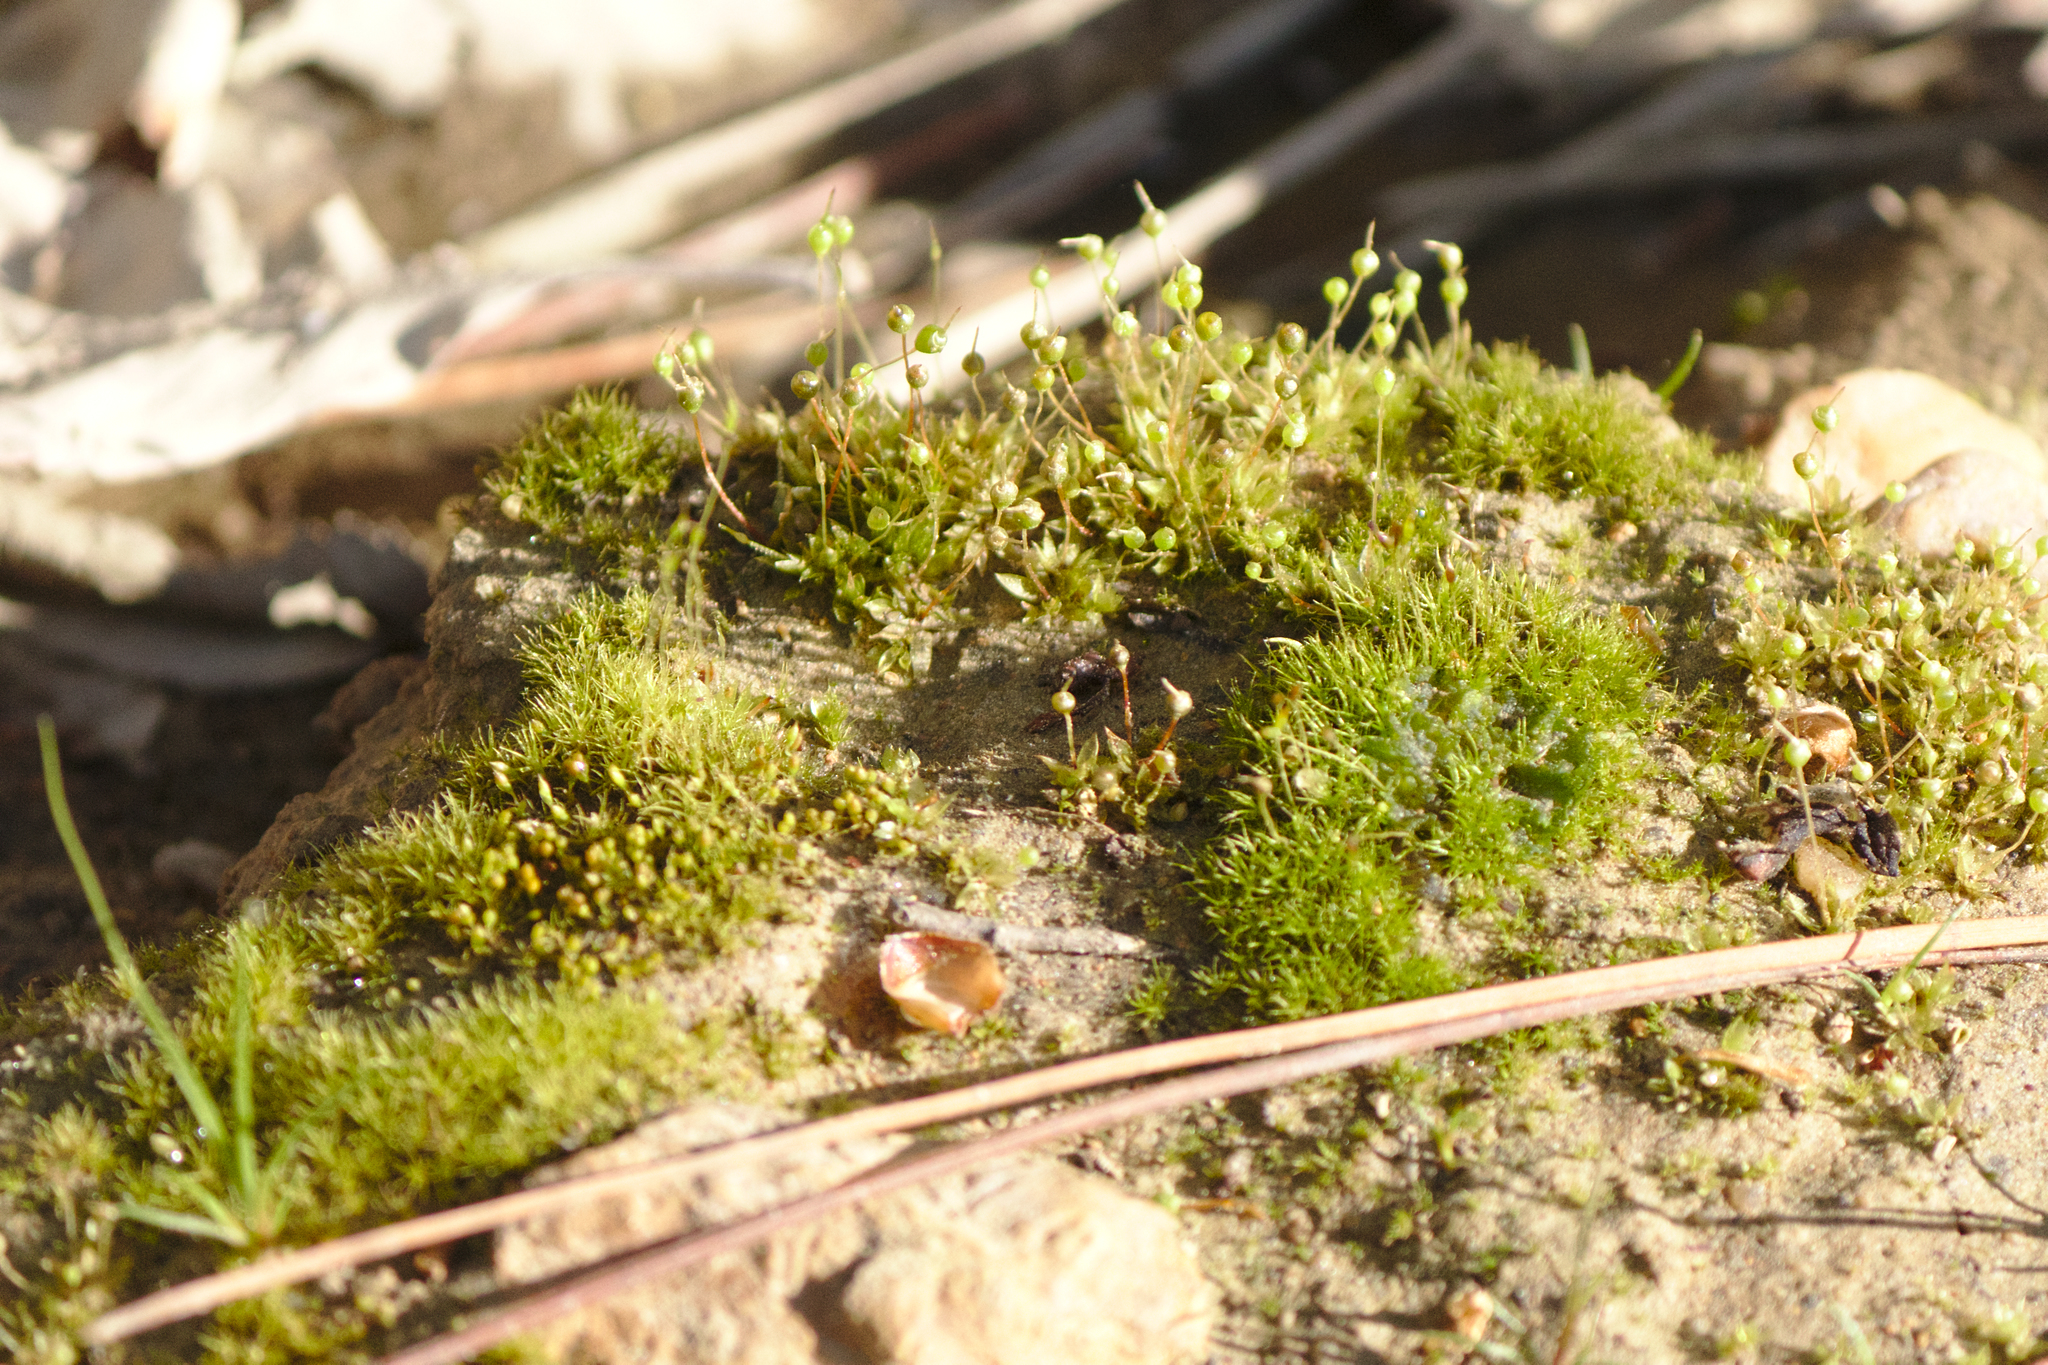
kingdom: Plantae
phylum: Bryophyta
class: Bryopsida
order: Funariales
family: Funariaceae
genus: Physcomitrium
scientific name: Physcomitrium pyriforme
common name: Common bladder-moss
